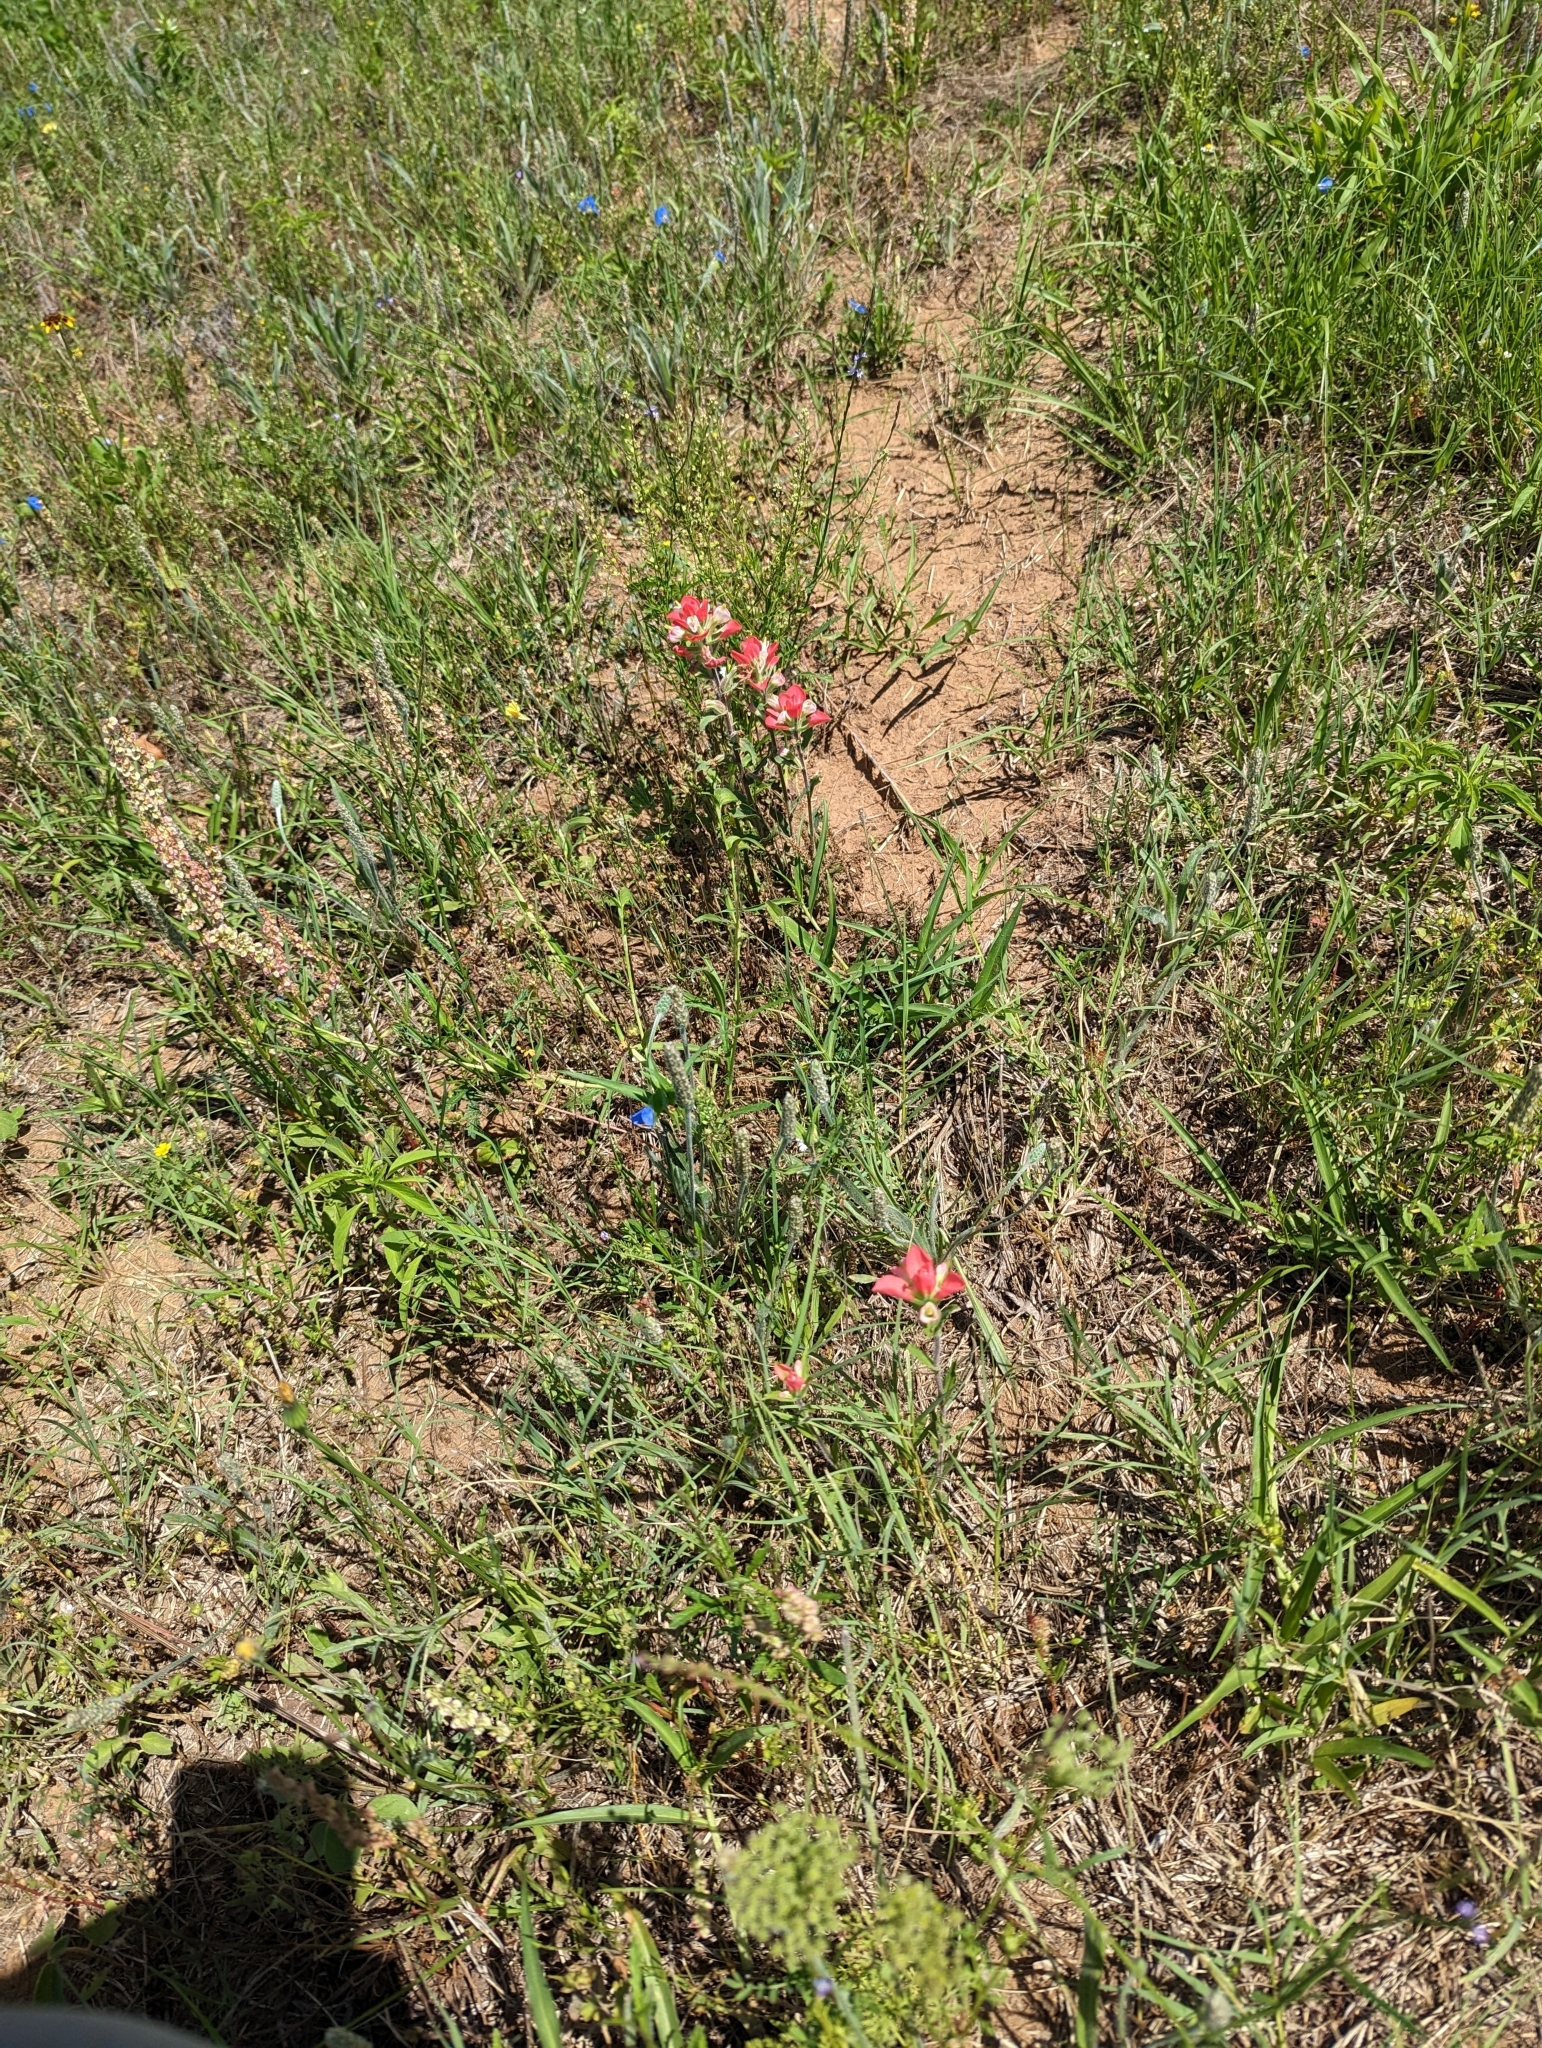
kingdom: Plantae
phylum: Tracheophyta
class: Magnoliopsida
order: Lamiales
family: Orobanchaceae
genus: Castilleja
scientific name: Castilleja indivisa
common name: Texas paintbrush
